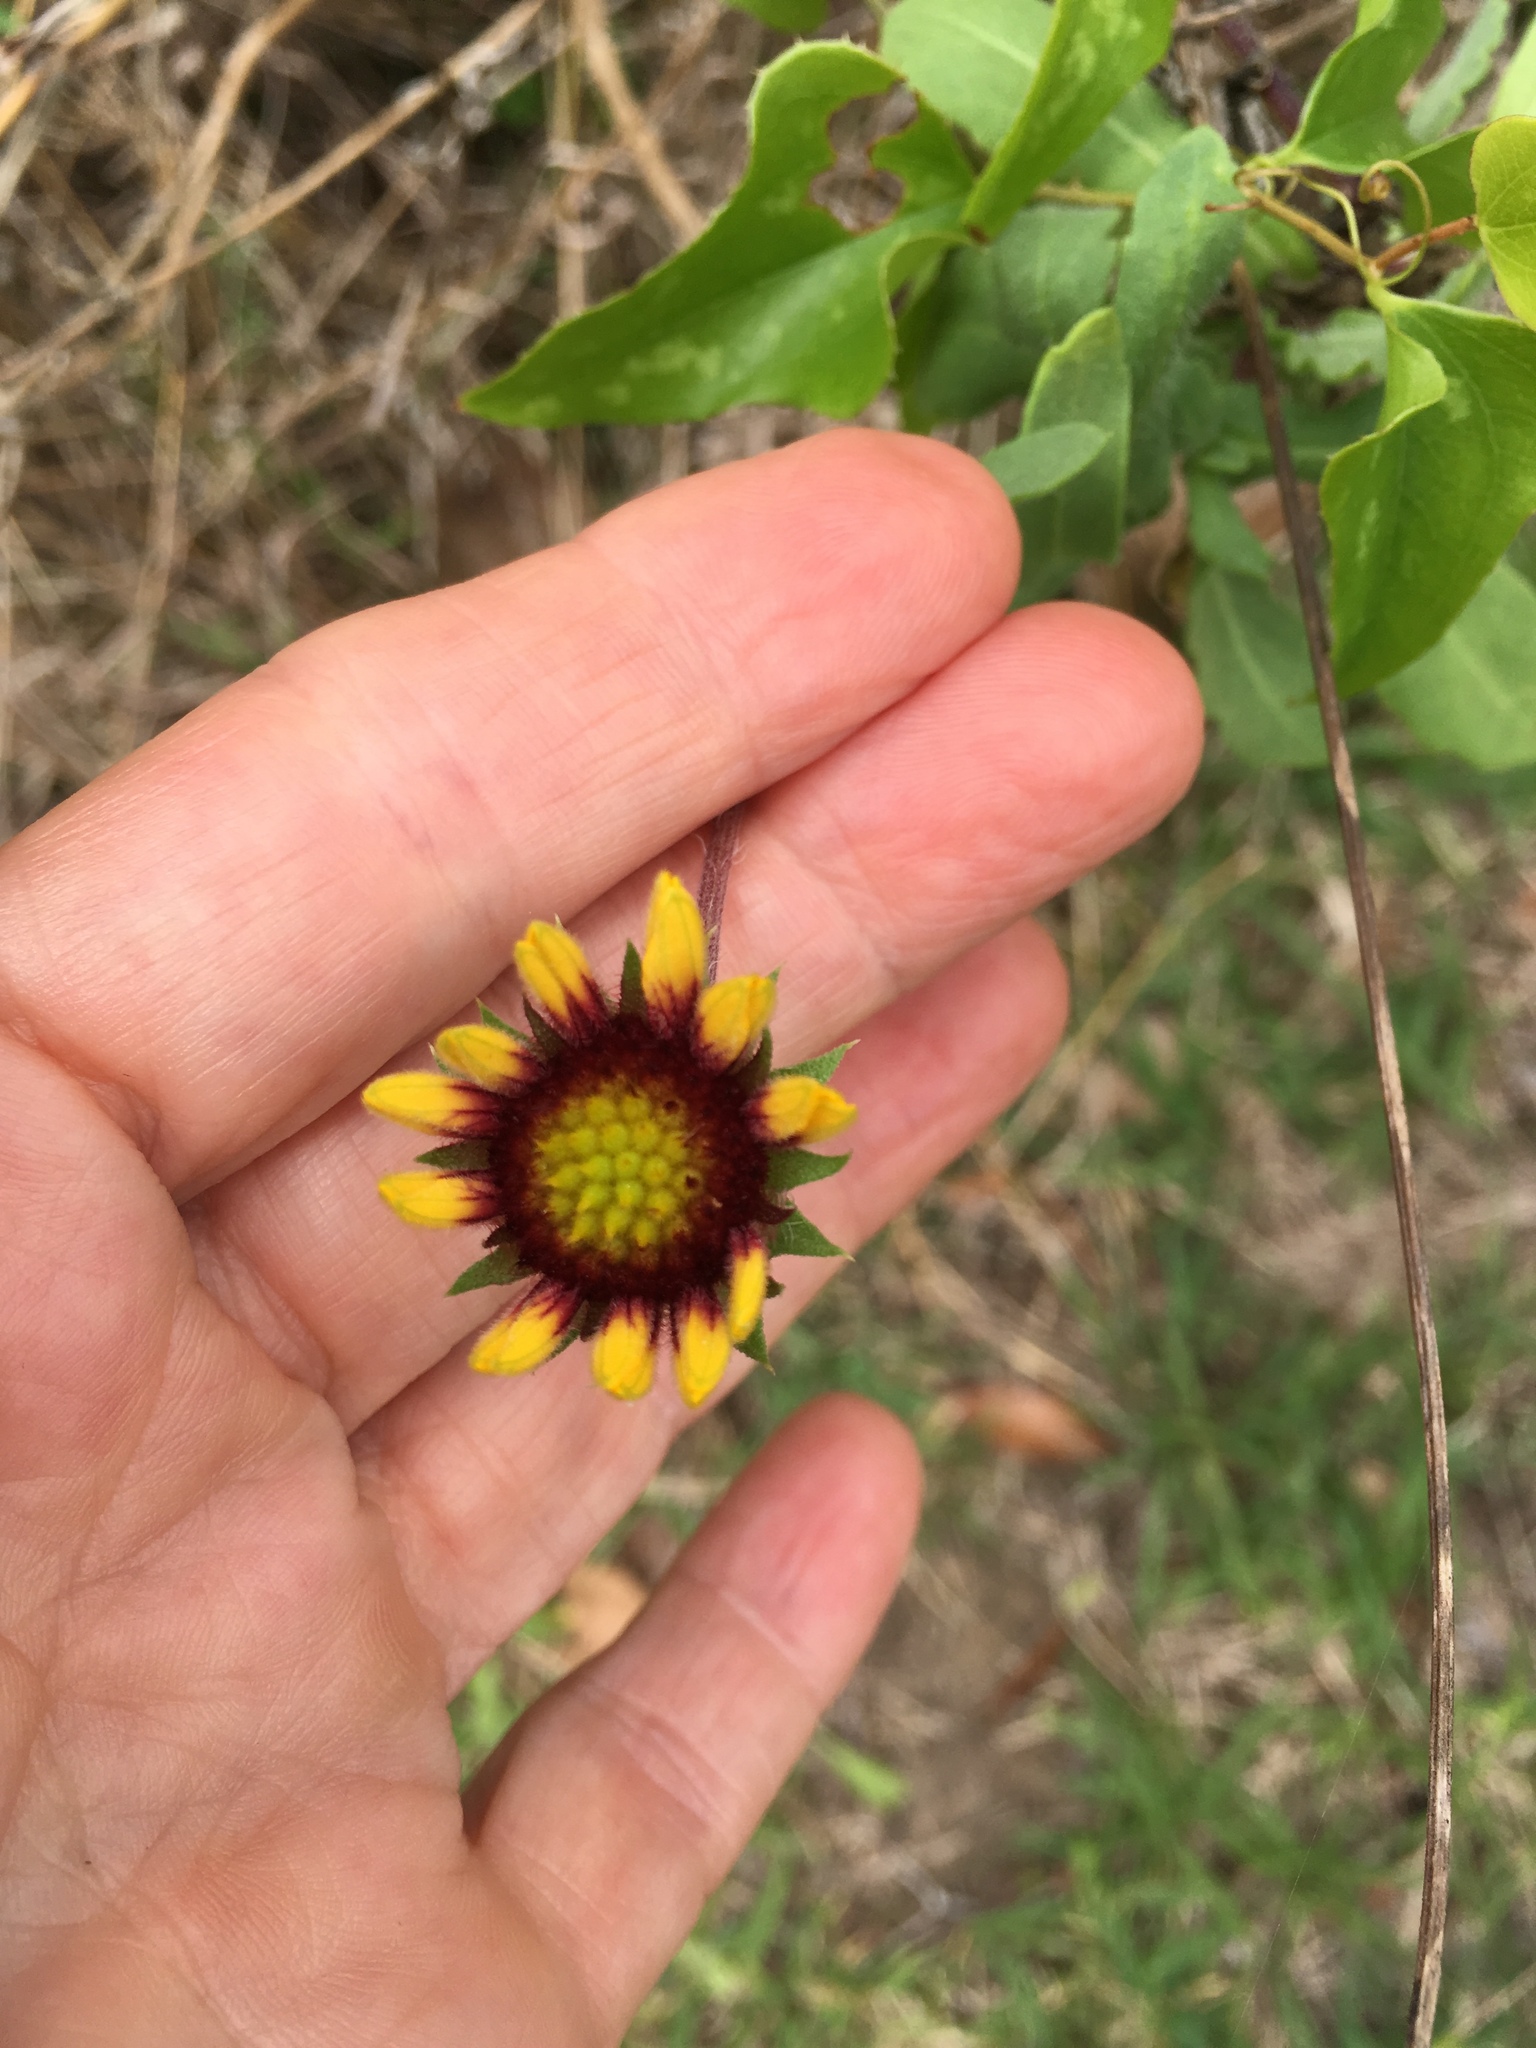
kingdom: Plantae
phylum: Tracheophyta
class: Magnoliopsida
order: Asterales
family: Asteraceae
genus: Gaillardia
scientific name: Gaillardia pulchella
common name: Firewheel
